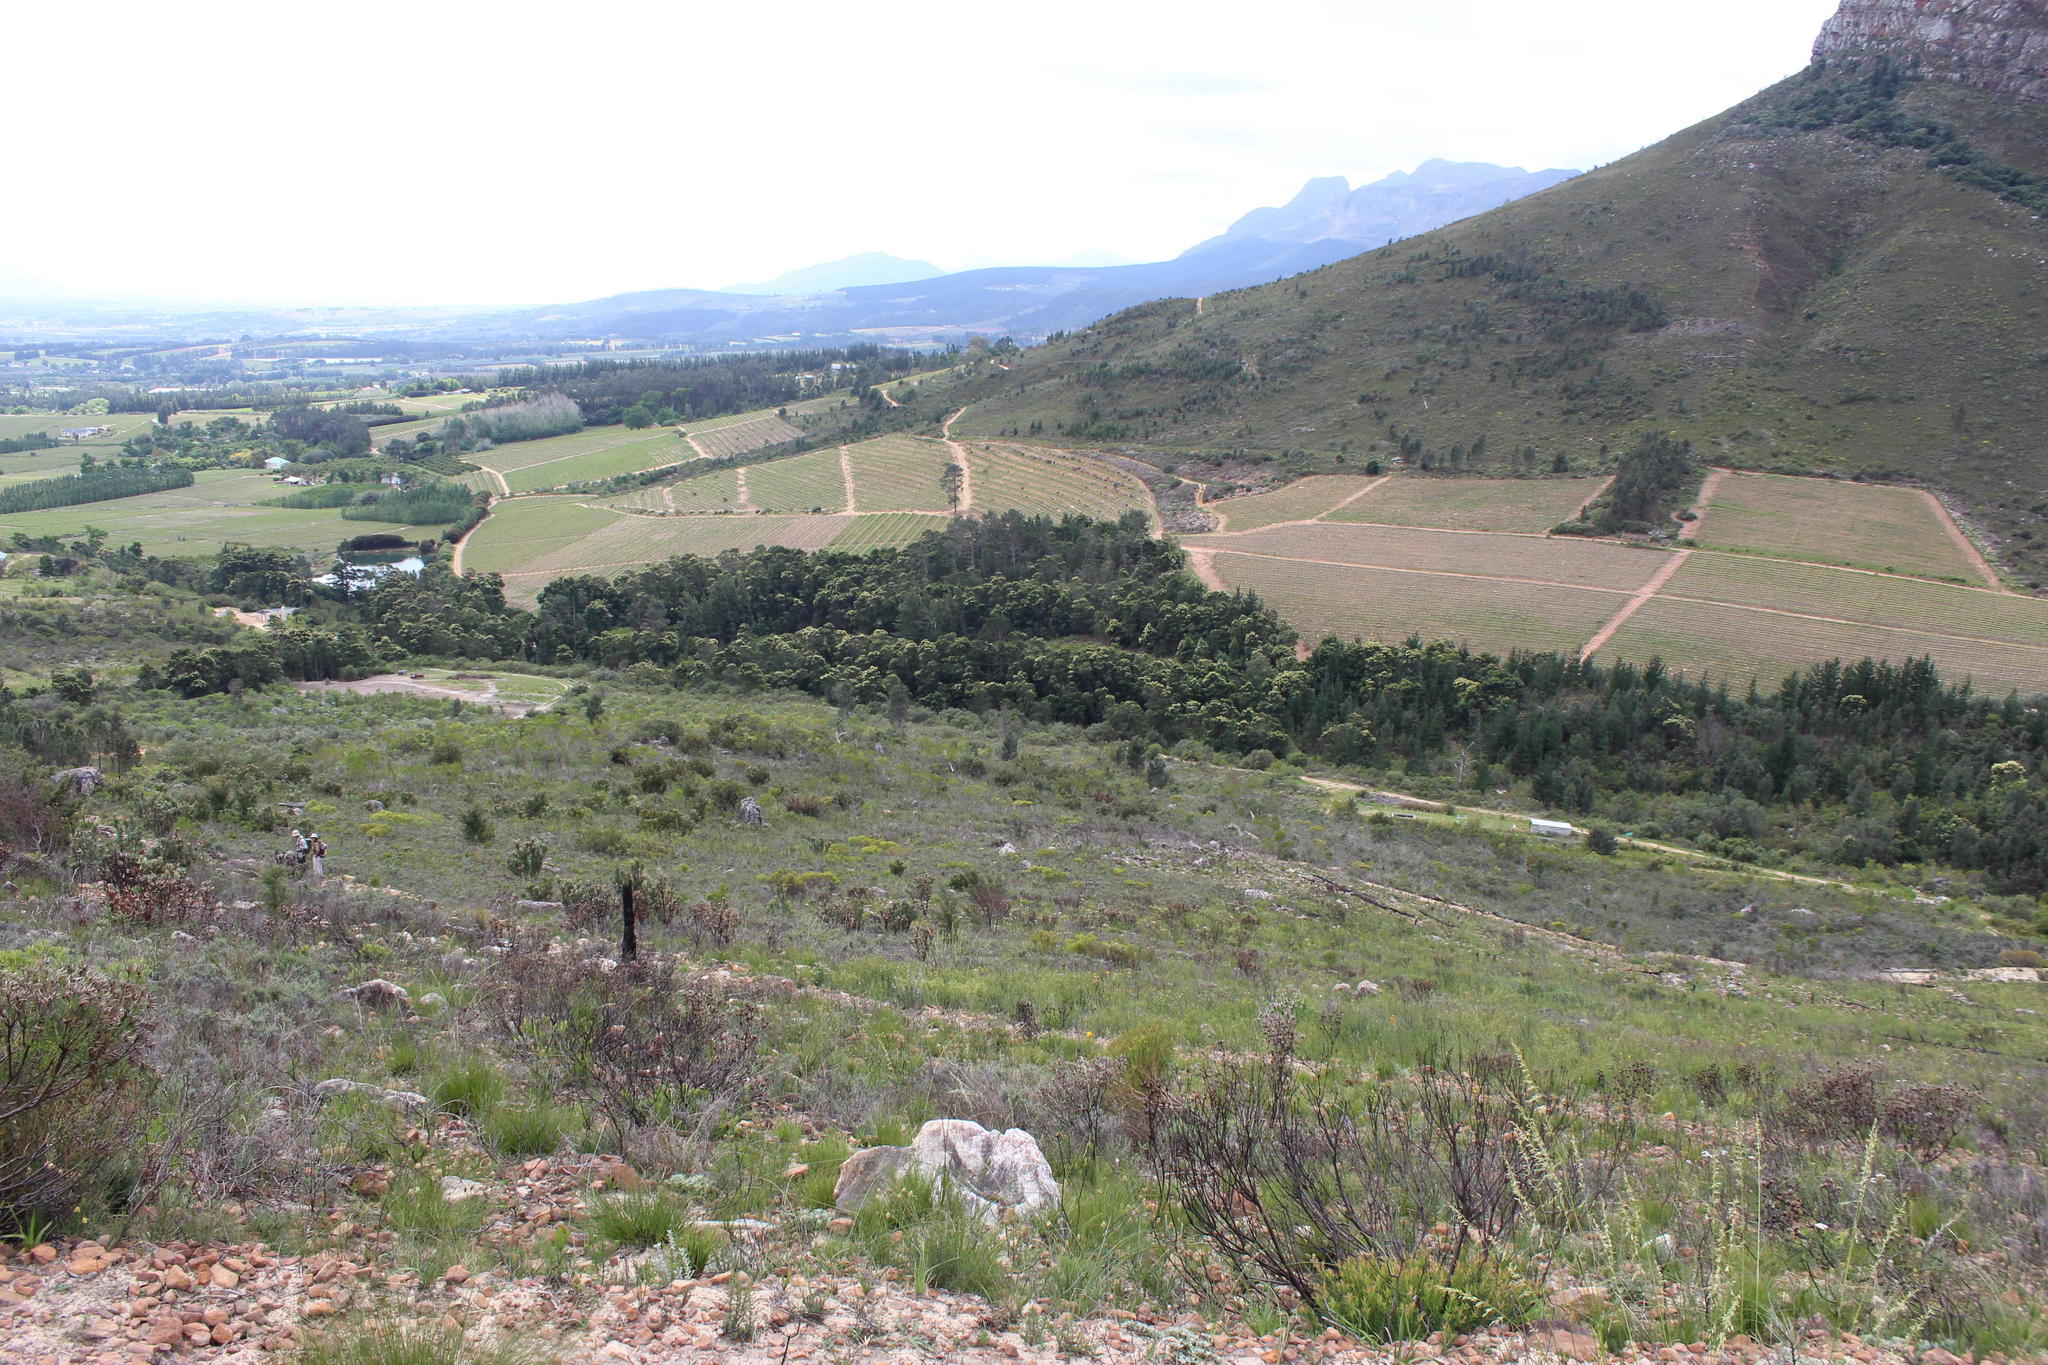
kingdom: Plantae
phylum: Tracheophyta
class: Magnoliopsida
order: Fabales
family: Fabaceae
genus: Acacia
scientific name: Acacia mearnsii
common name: Black wattle
